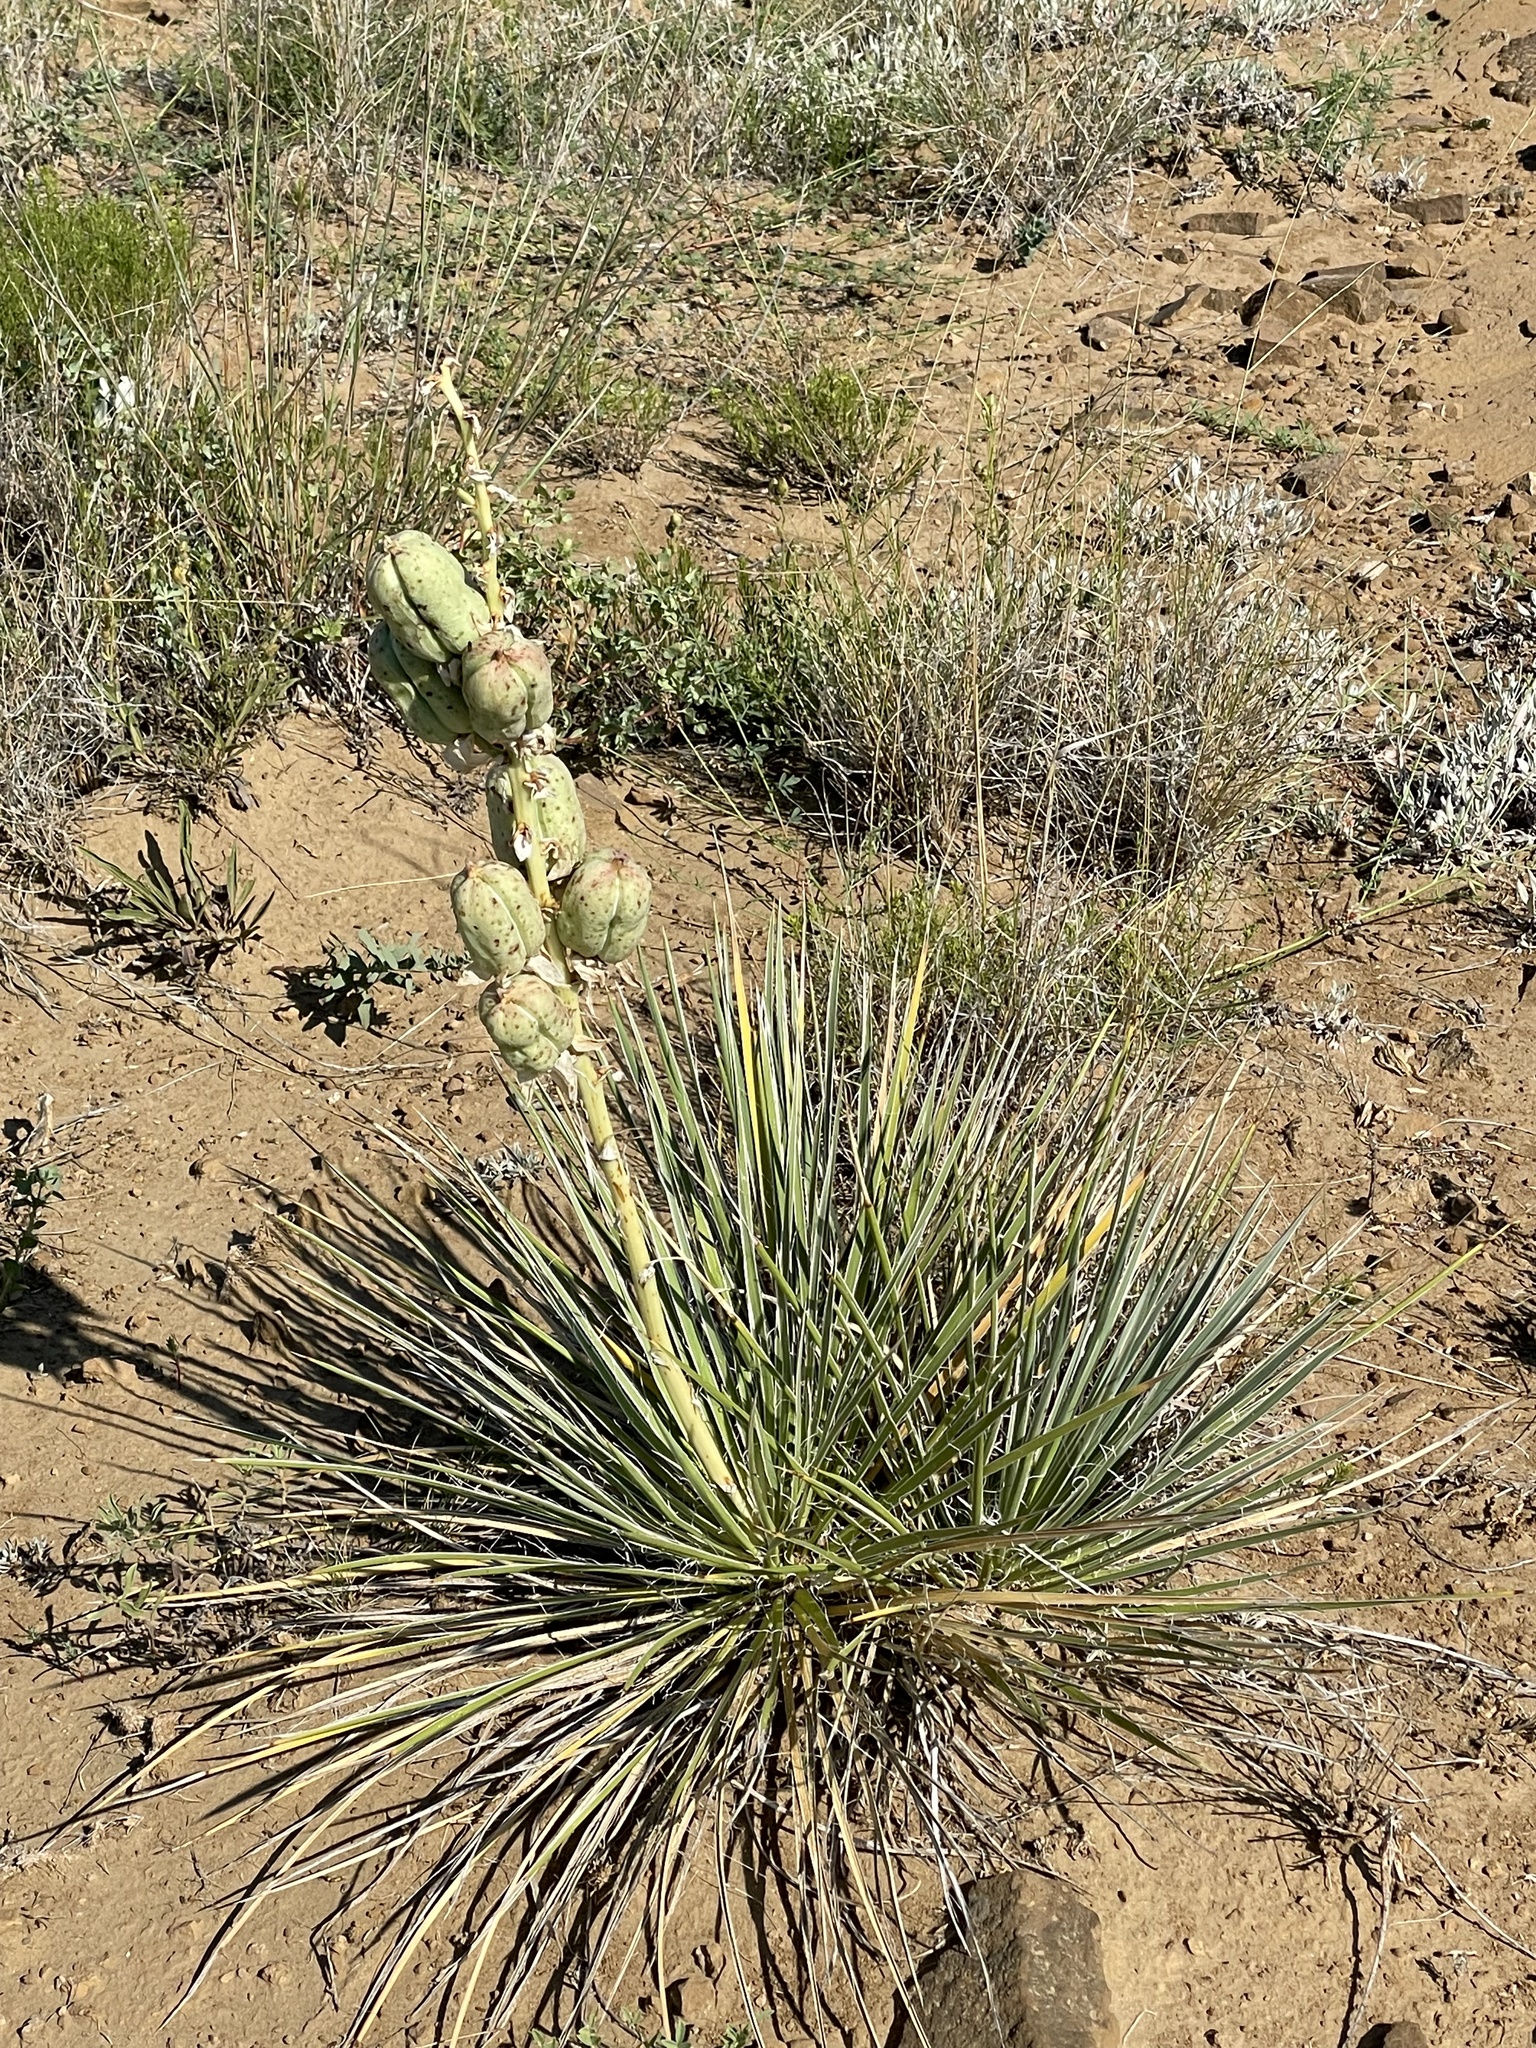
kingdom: Plantae
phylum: Tracheophyta
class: Liliopsida
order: Asparagales
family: Asparagaceae
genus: Yucca
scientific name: Yucca glauca
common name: Great plains yucca
